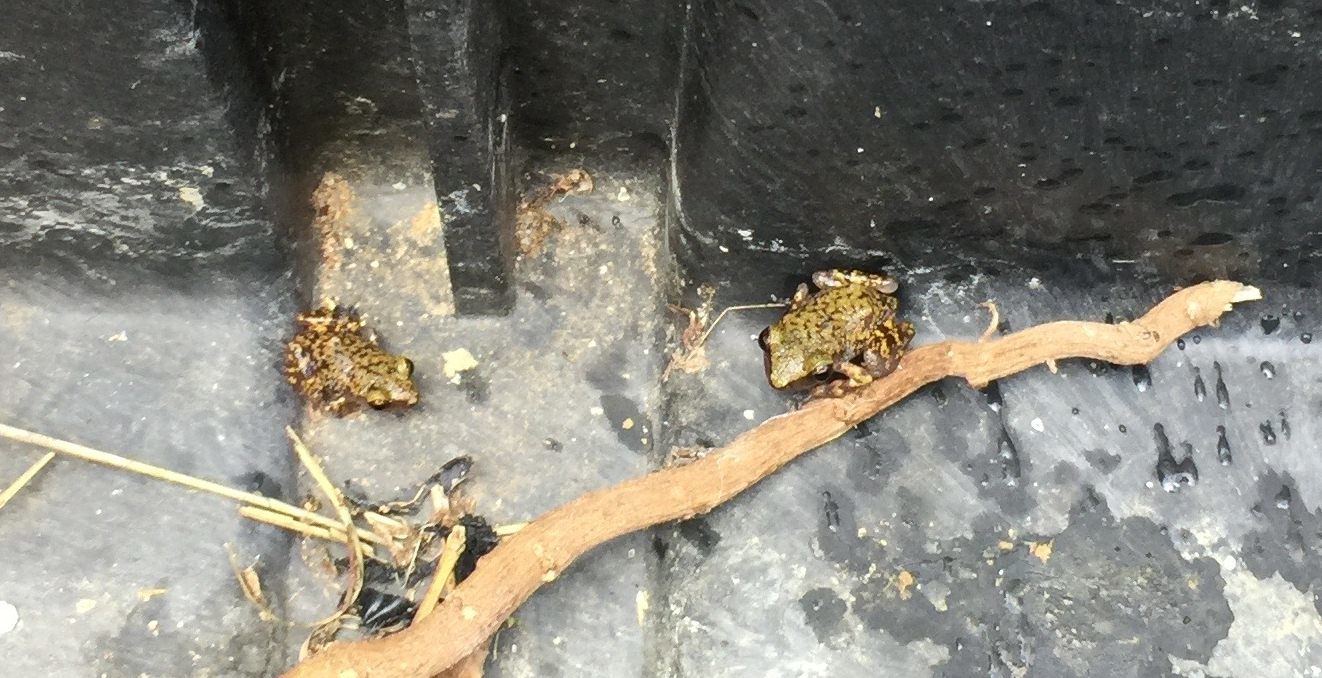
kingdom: Animalia
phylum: Chordata
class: Amphibia
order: Anura
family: Eleutherodactylidae
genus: Eleutherodactylus
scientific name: Eleutherodactylus marnockii
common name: Cliff chirping frog
